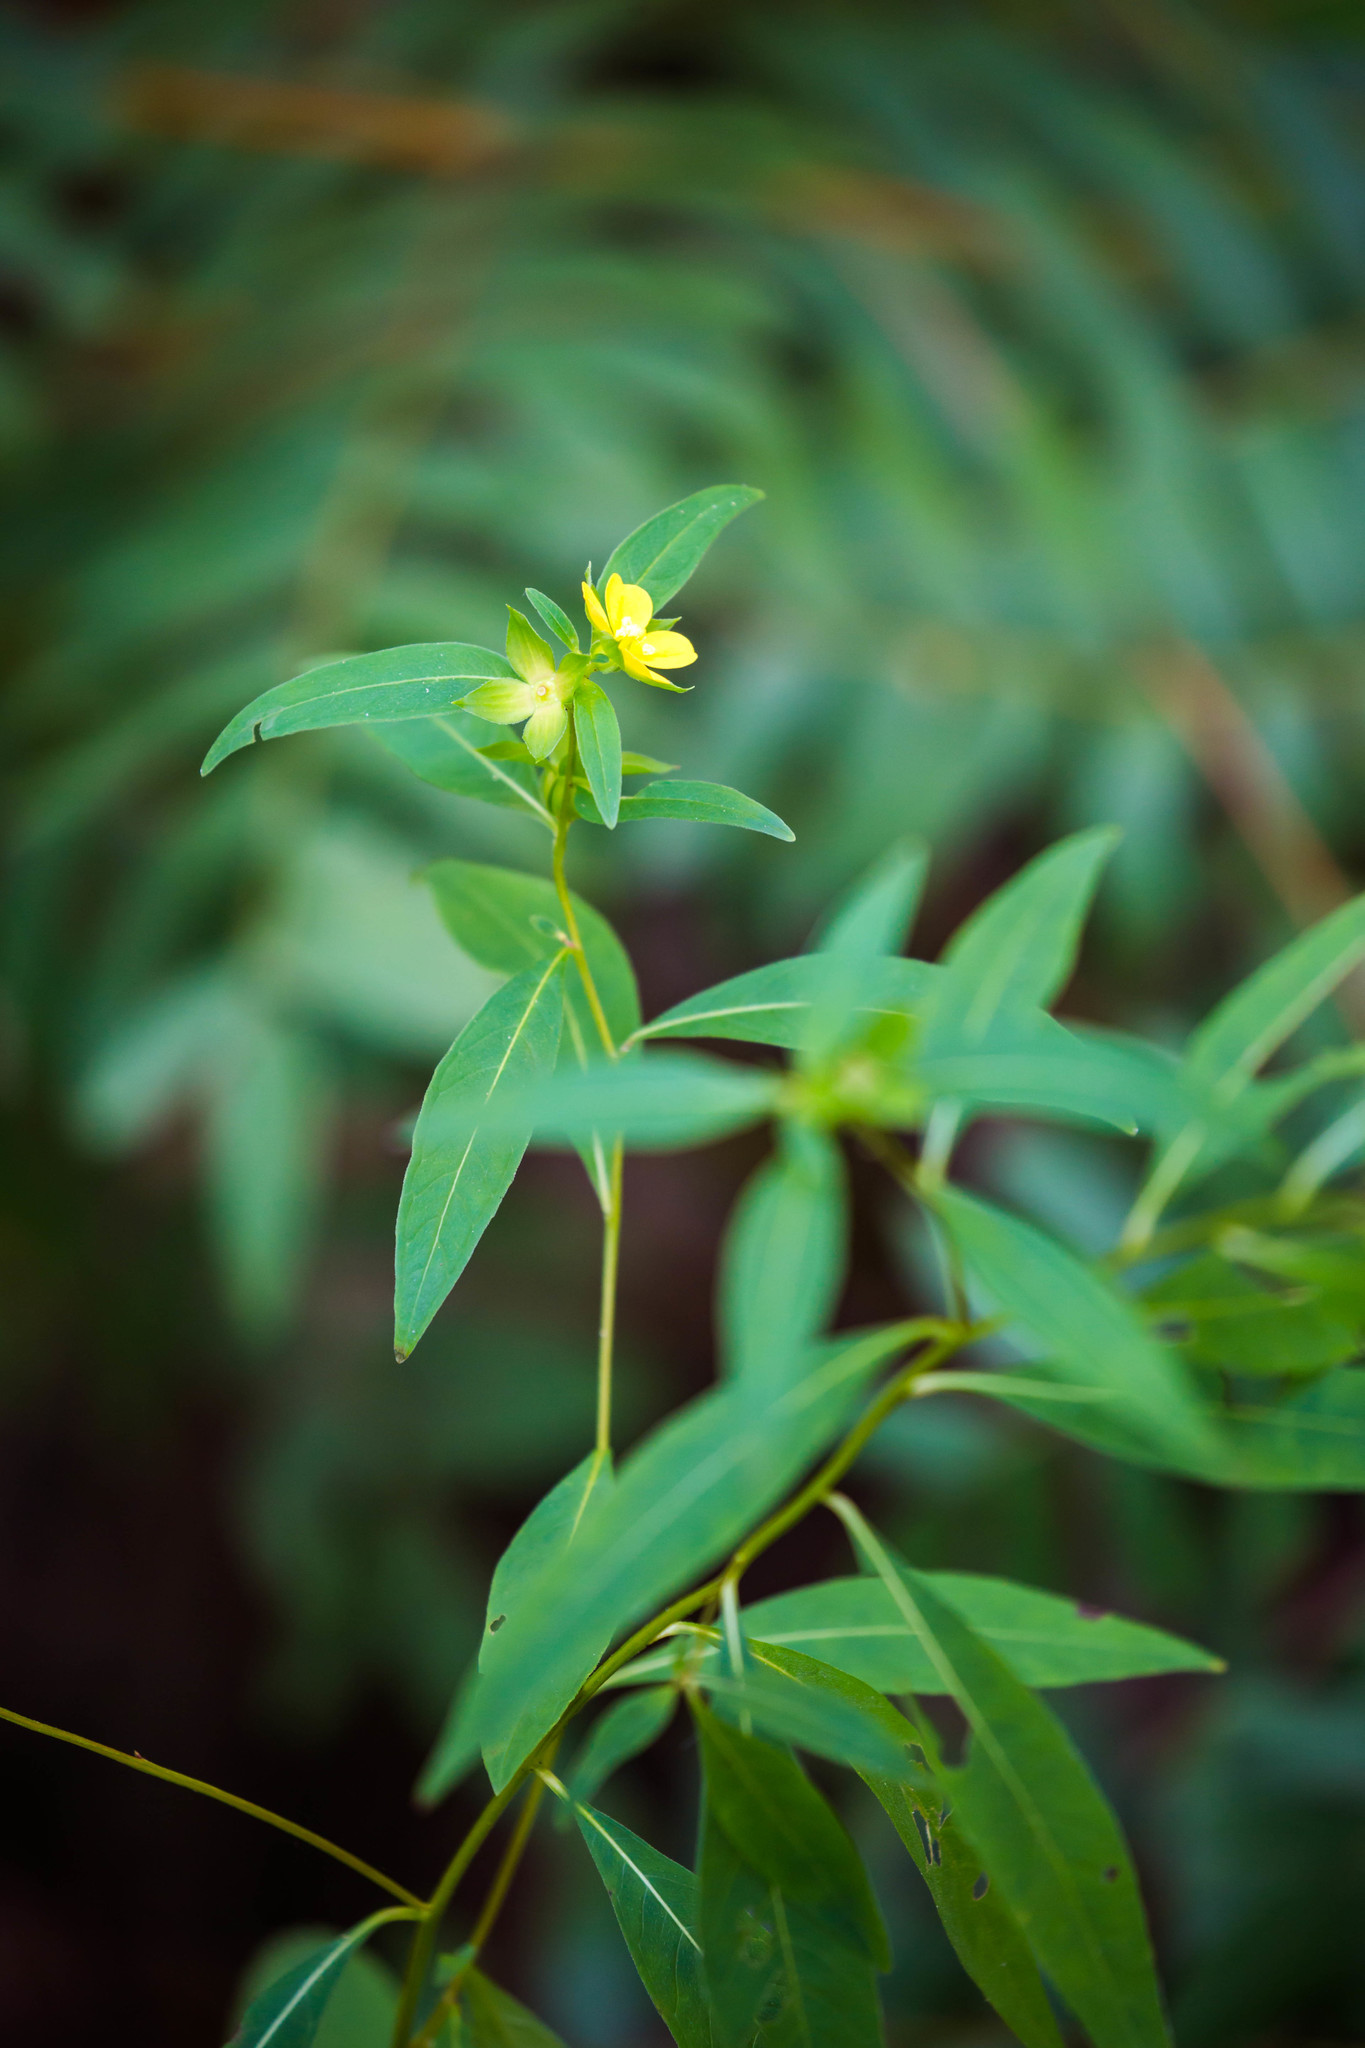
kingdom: Plantae
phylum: Tracheophyta
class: Magnoliopsida
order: Myrtales
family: Onagraceae
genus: Ludwigia
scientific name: Ludwigia alternifolia
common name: Rattlebox
